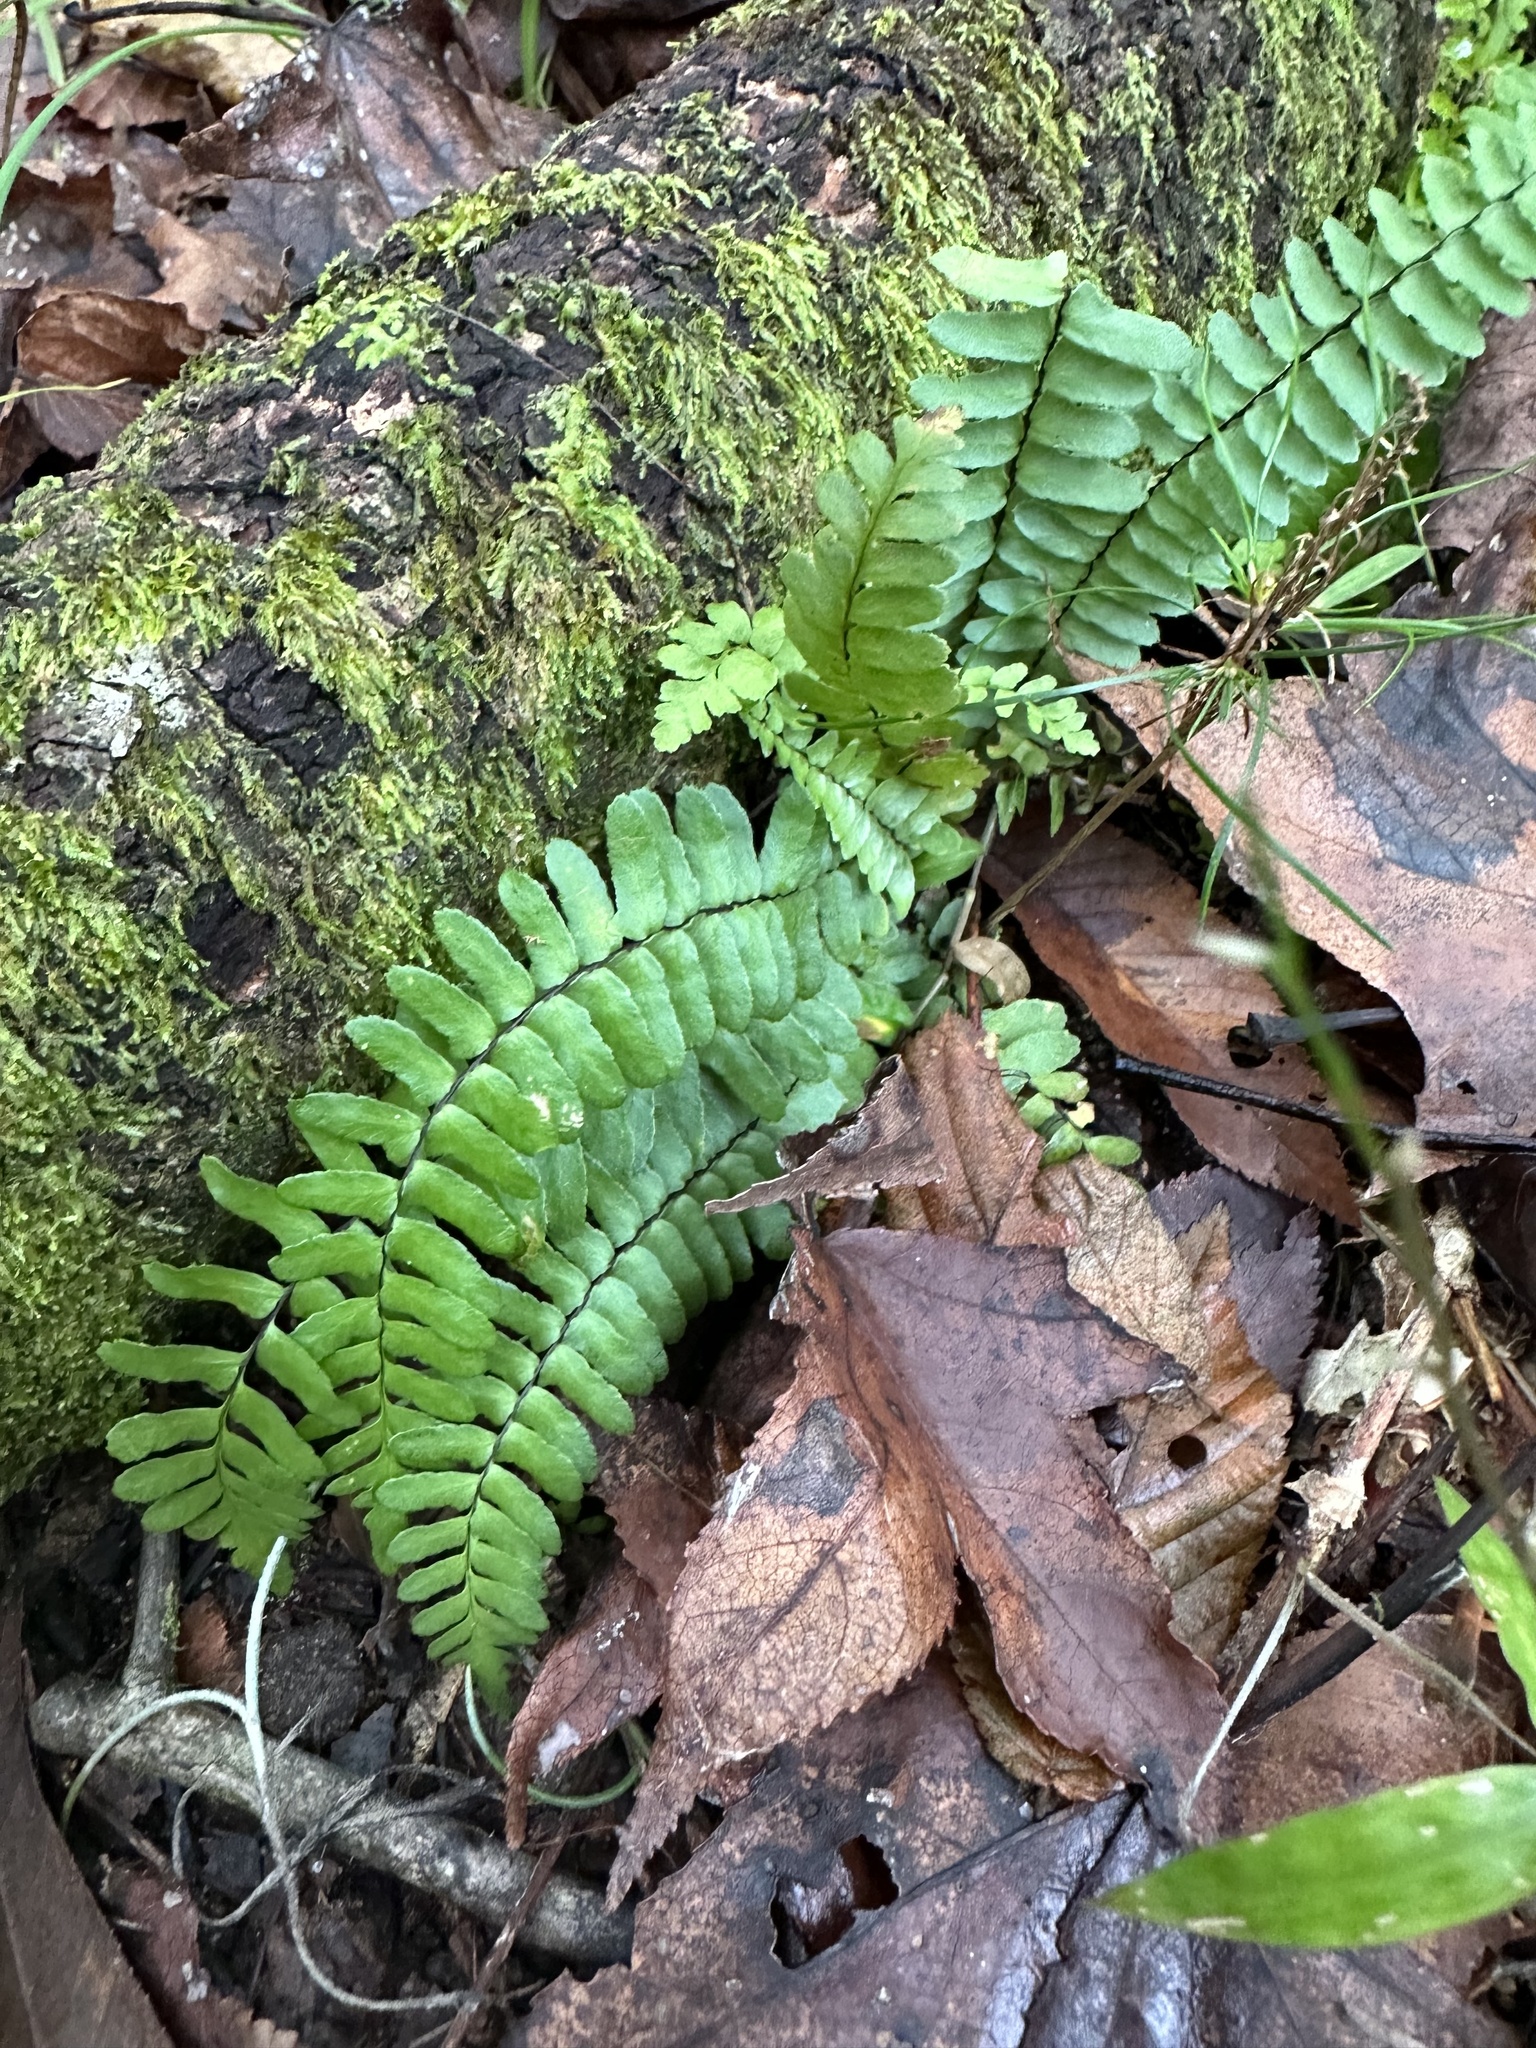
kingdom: Plantae
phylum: Tracheophyta
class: Polypodiopsida
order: Polypodiales
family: Aspleniaceae
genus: Asplenium
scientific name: Asplenium platyneuron
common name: Ebony spleenwort
